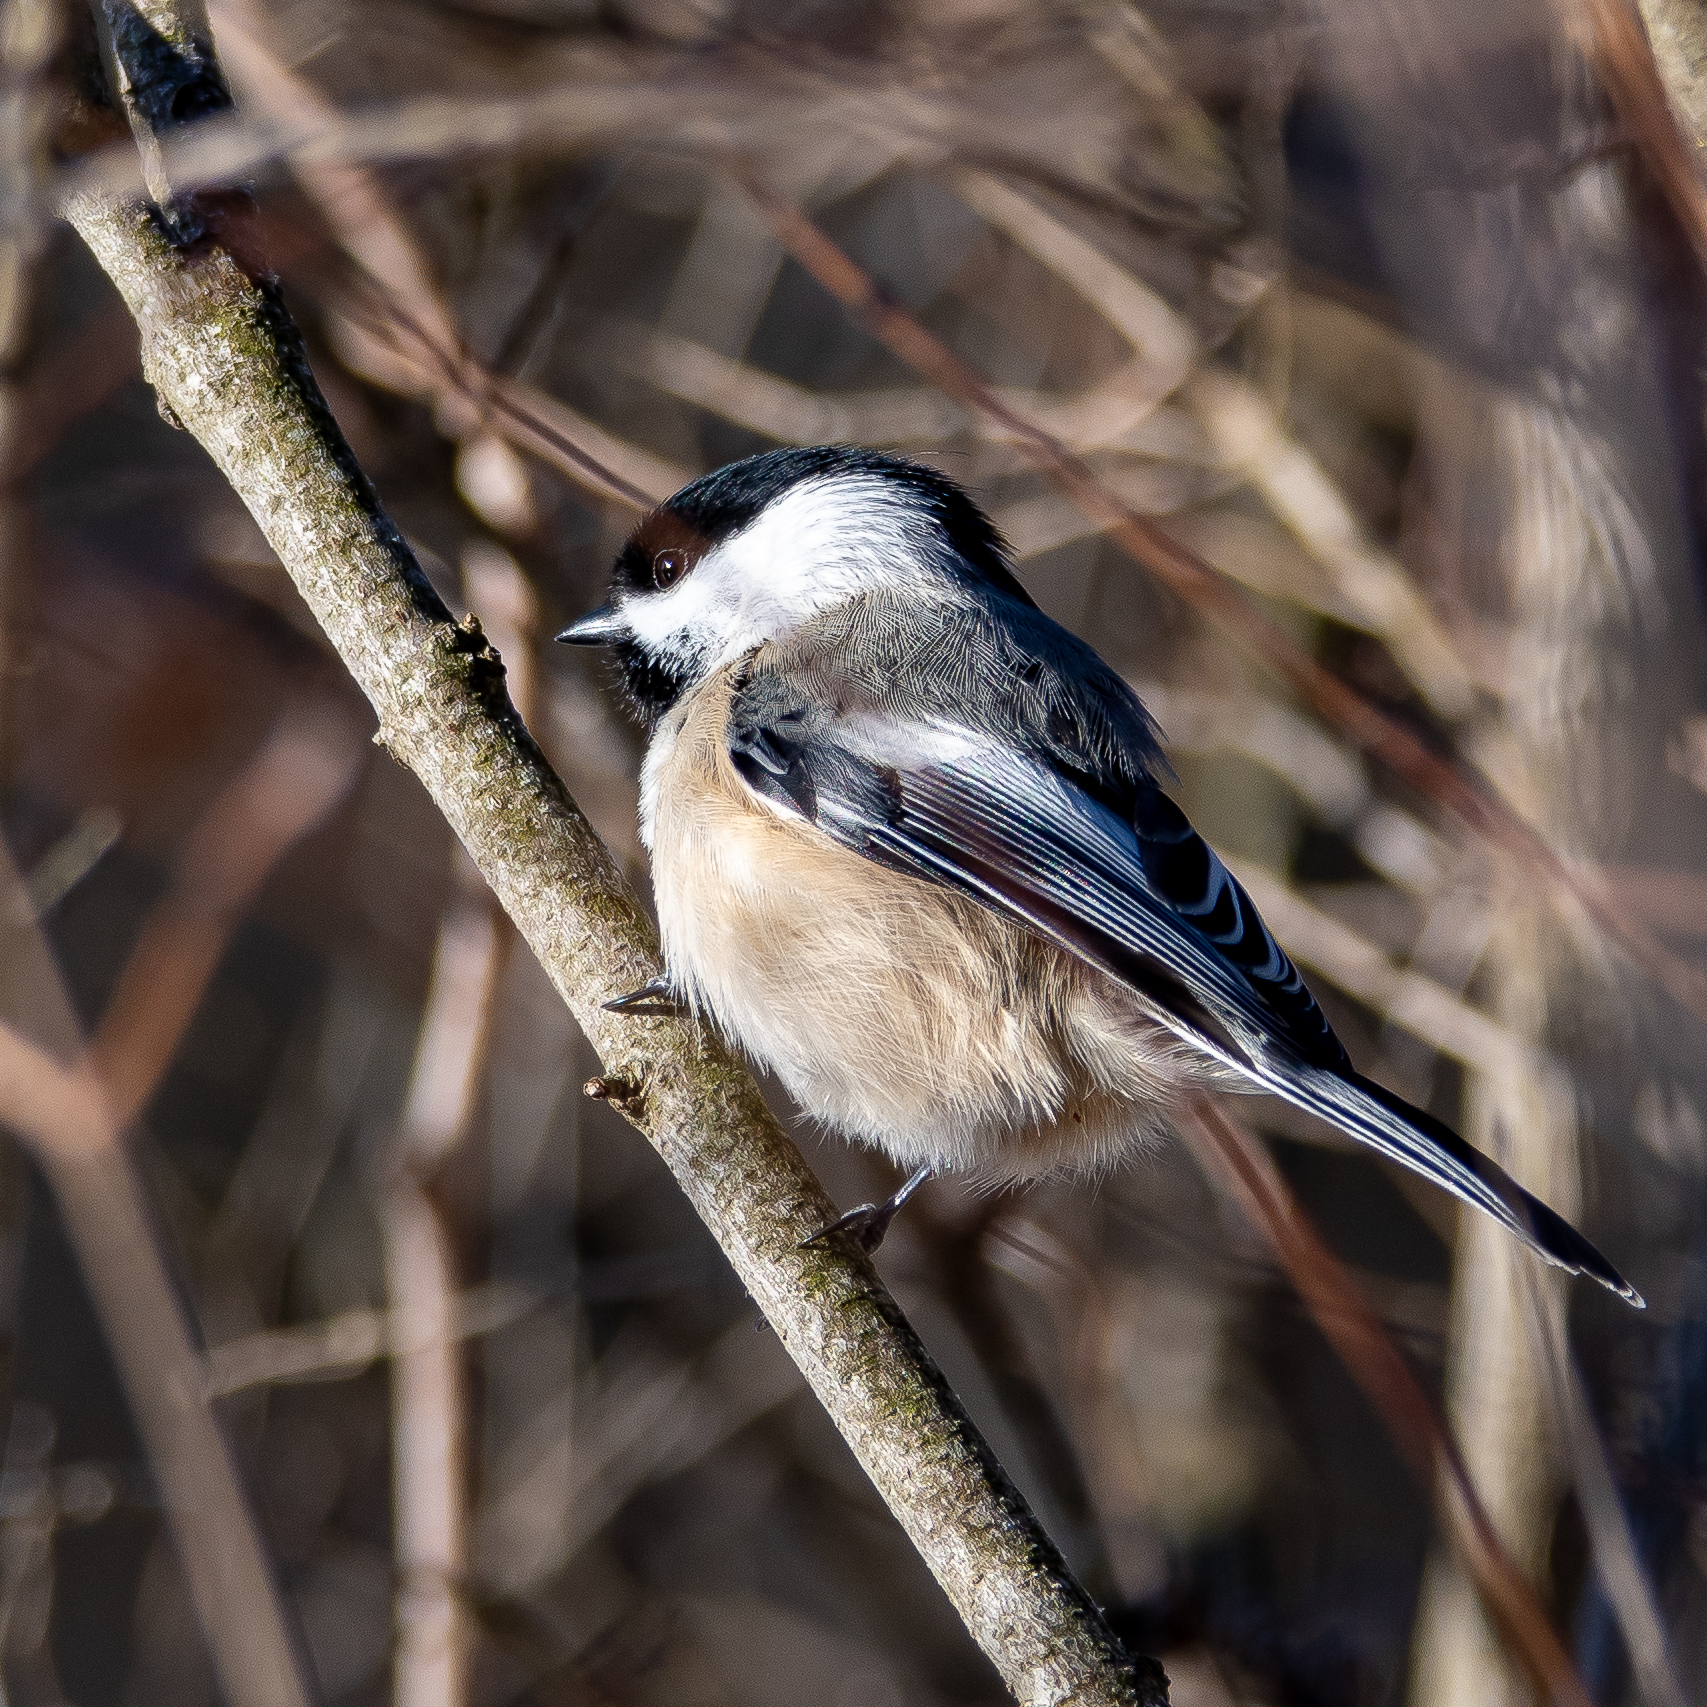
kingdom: Animalia
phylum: Chordata
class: Aves
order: Passeriformes
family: Paridae
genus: Poecile
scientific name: Poecile atricapillus
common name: Black-capped chickadee
